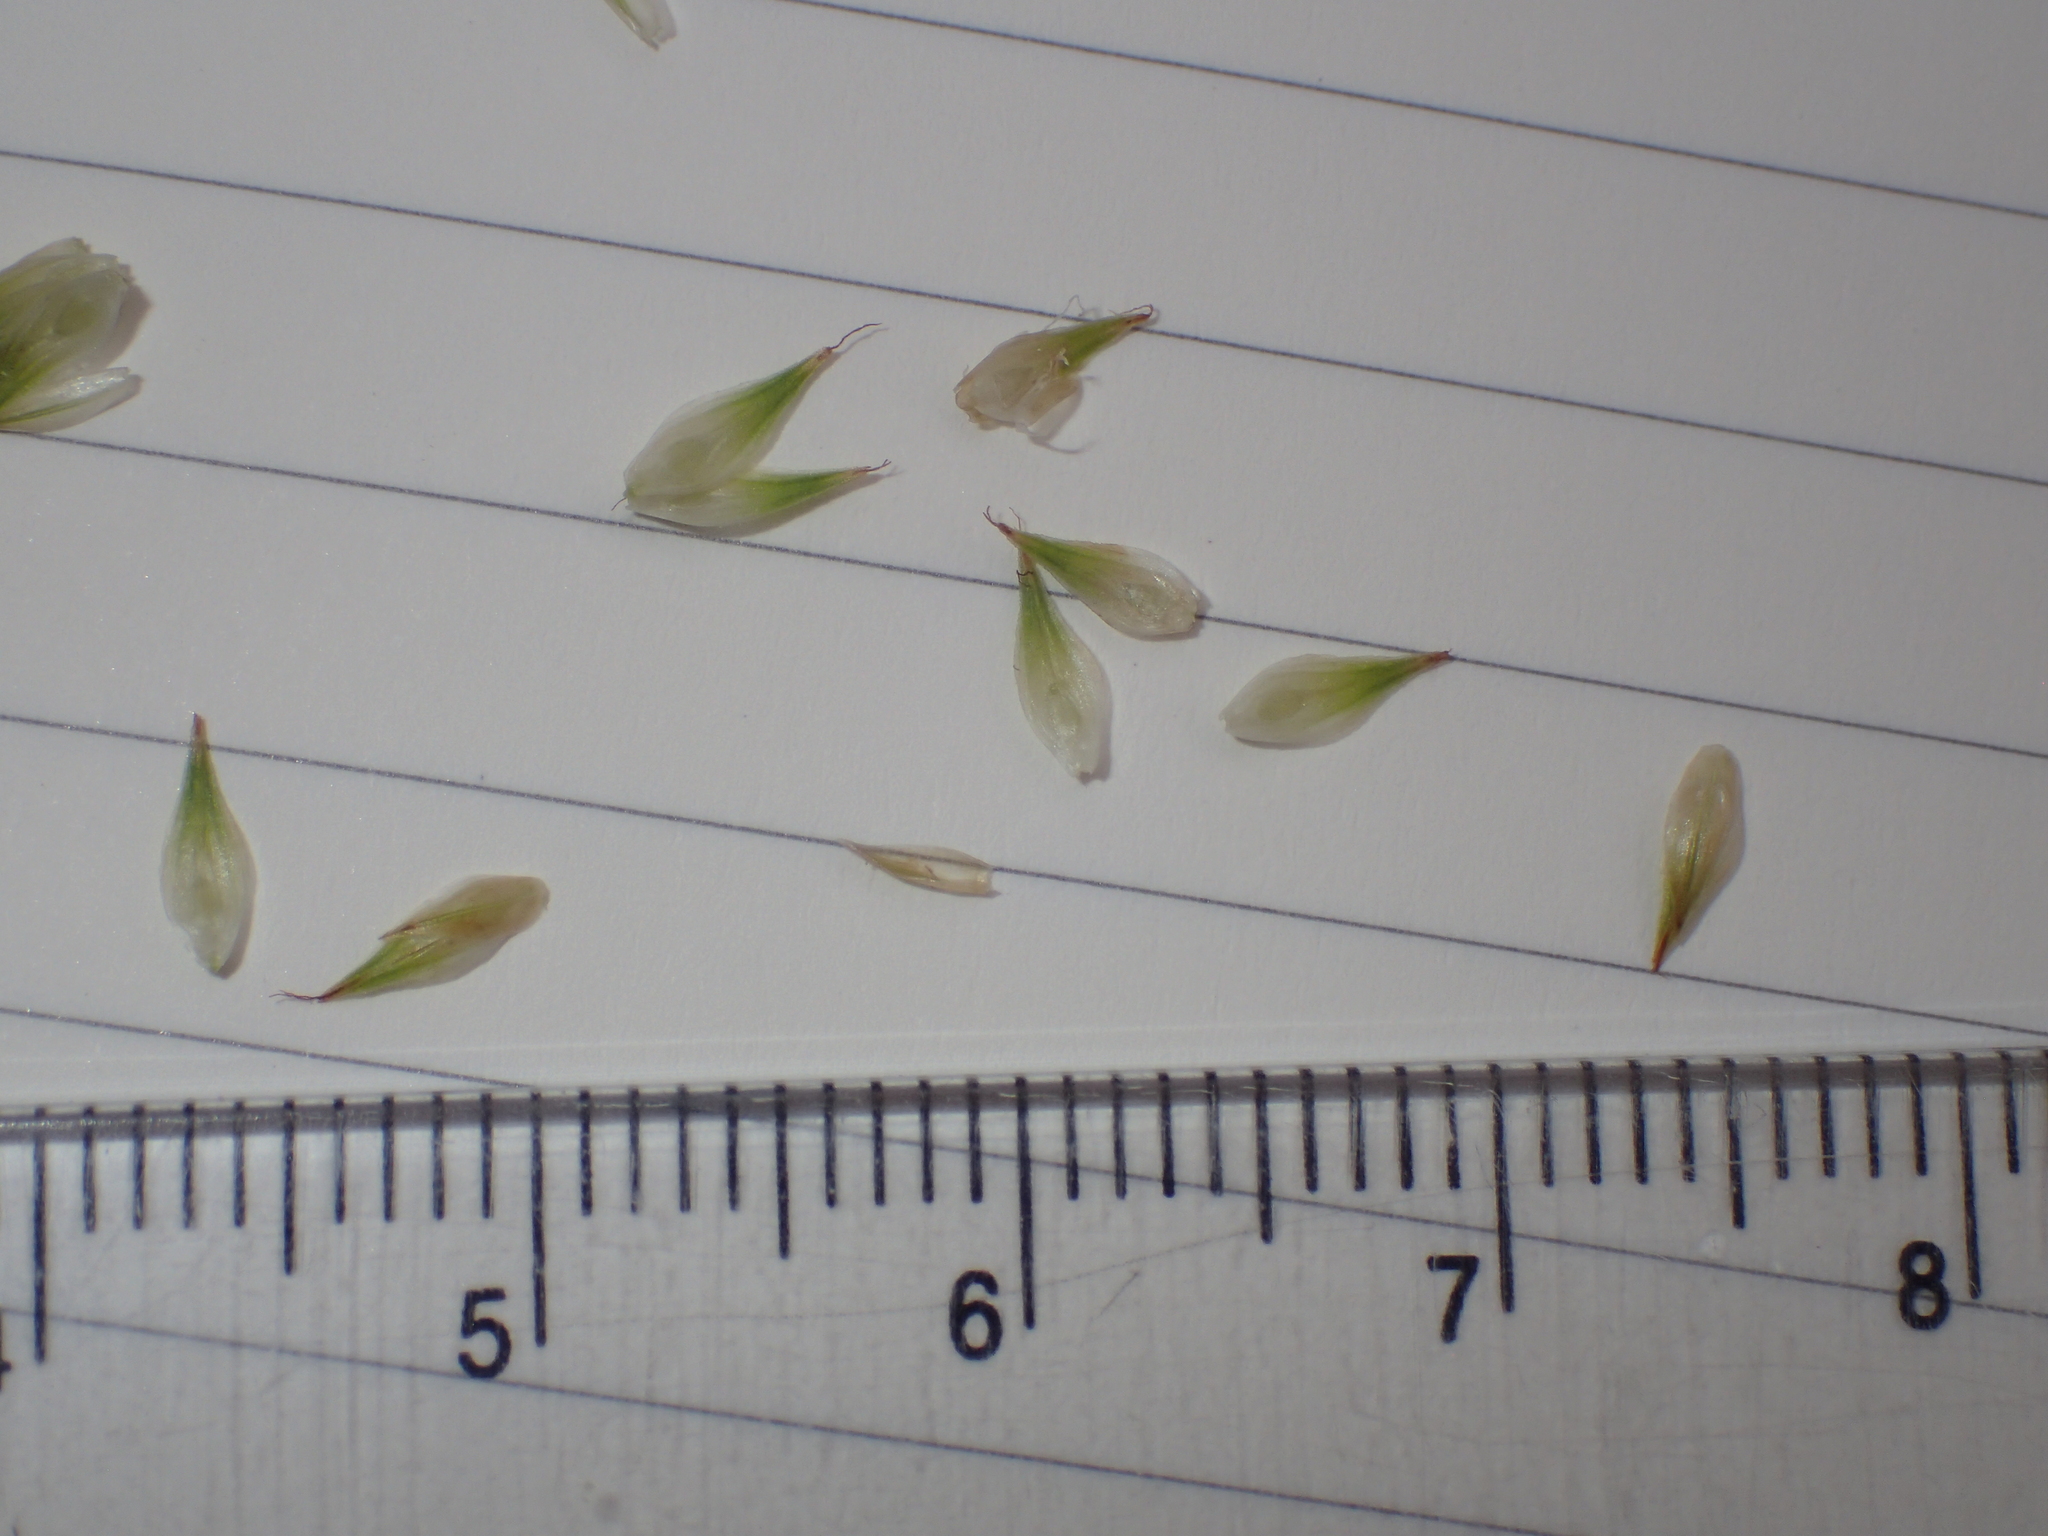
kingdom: Plantae
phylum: Tracheophyta
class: Liliopsida
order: Poales
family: Cyperaceae
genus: Carex
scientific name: Carex scoparia
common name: Broom sedge
